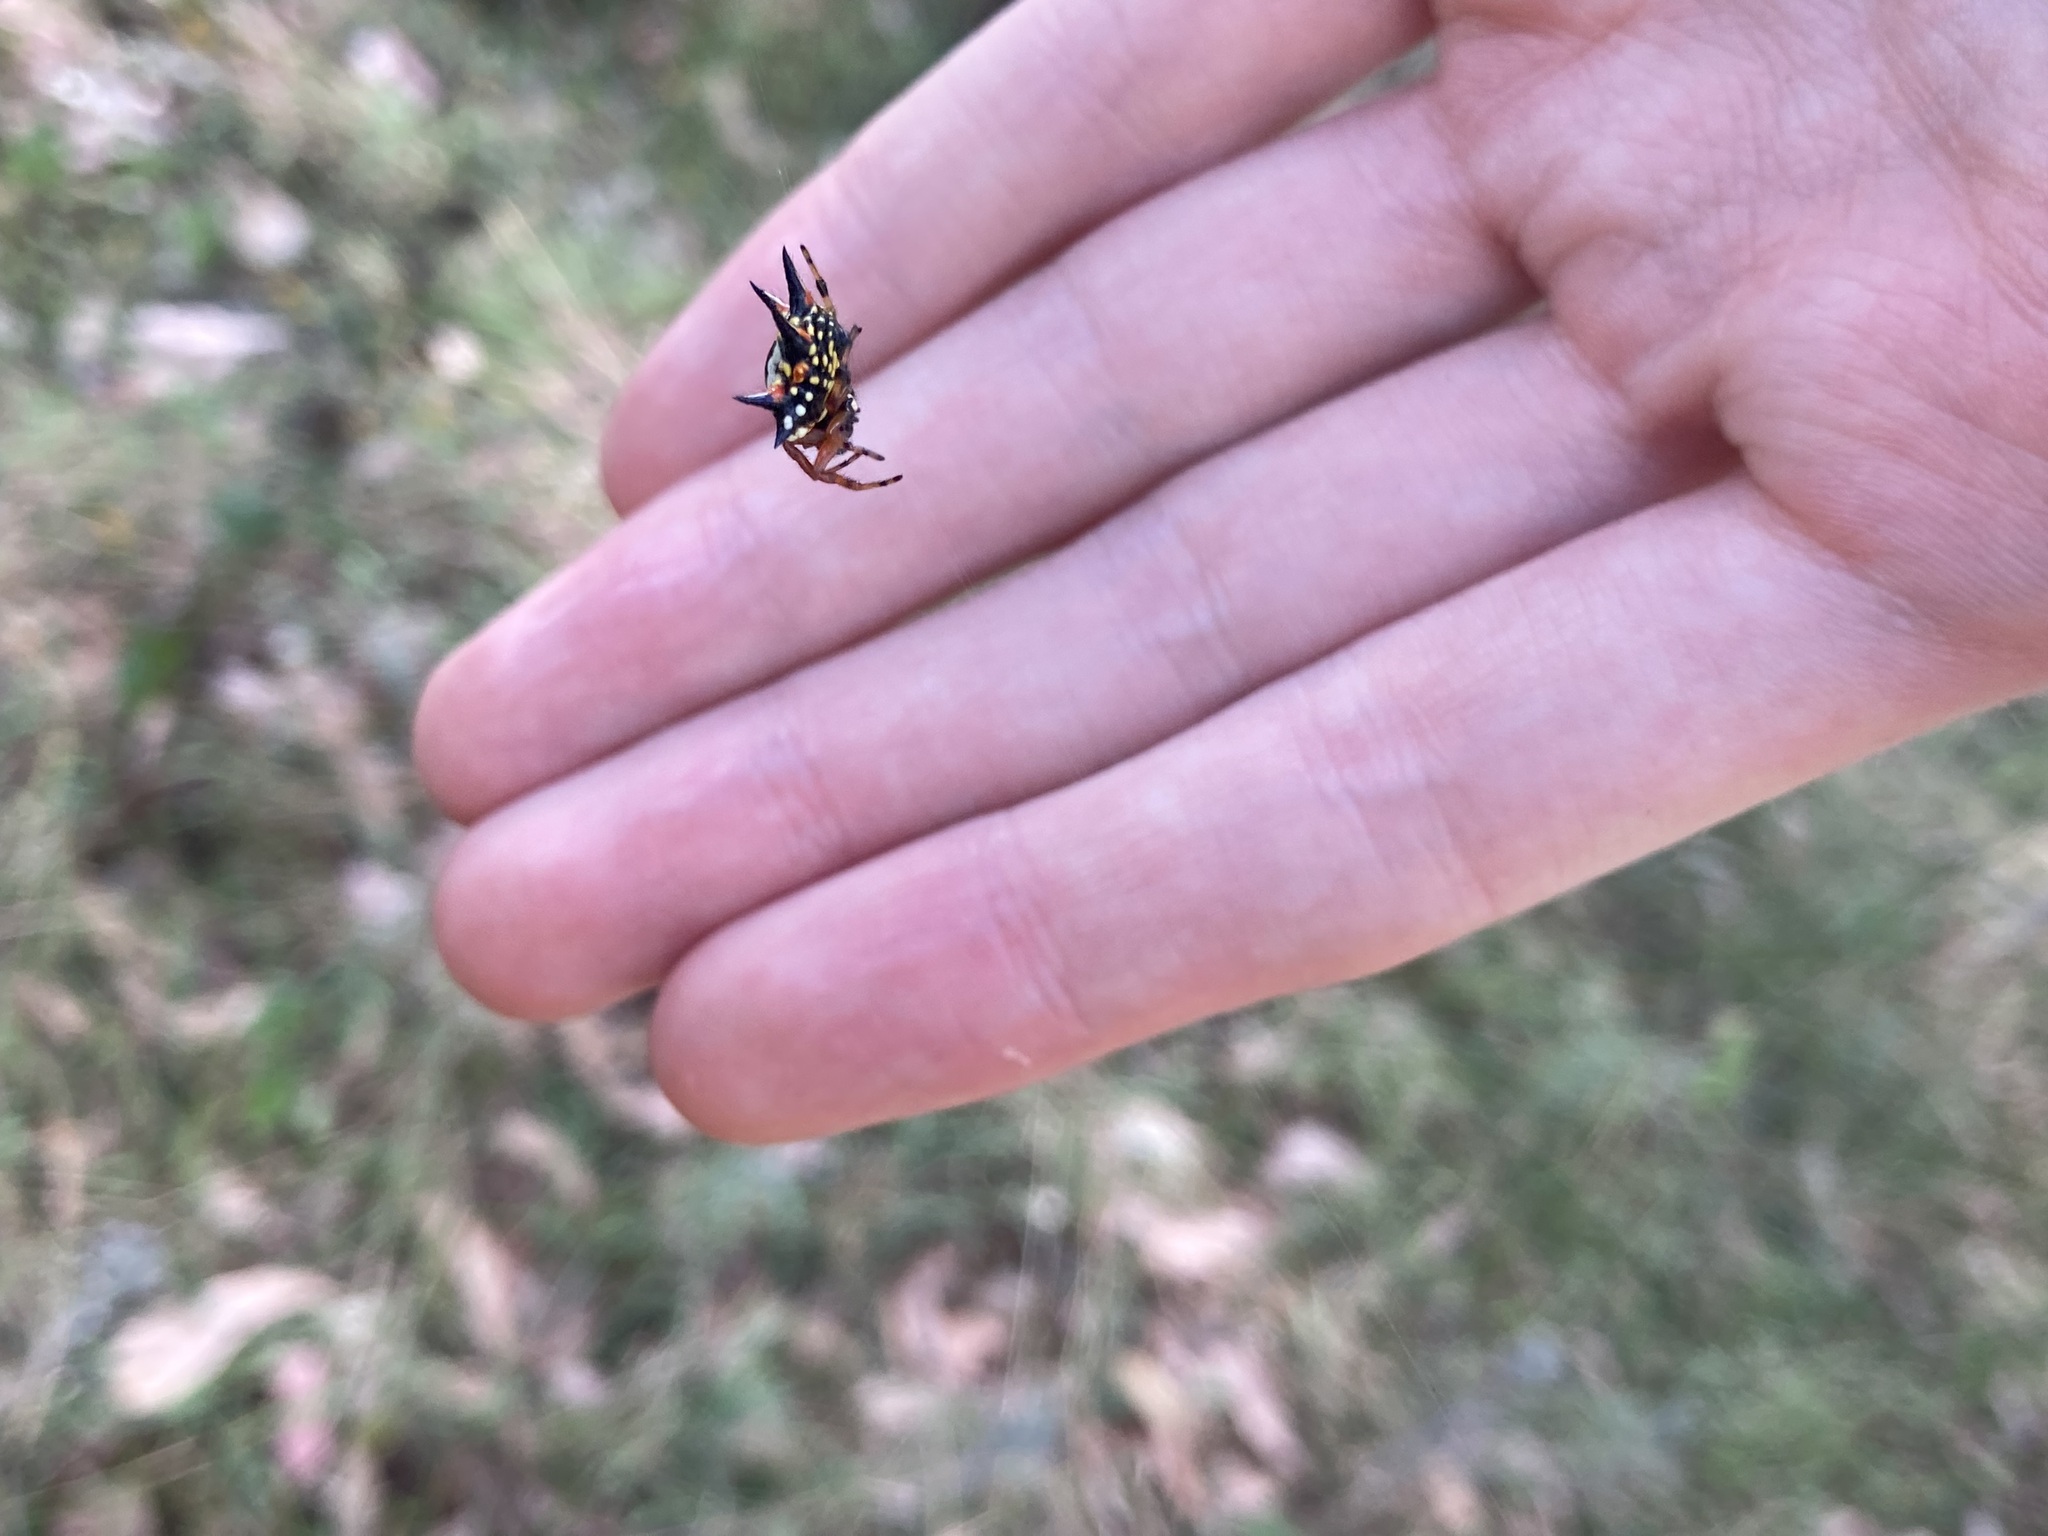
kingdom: Animalia
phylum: Arthropoda
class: Arachnida
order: Araneae
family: Araneidae
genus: Austracantha
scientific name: Austracantha minax
